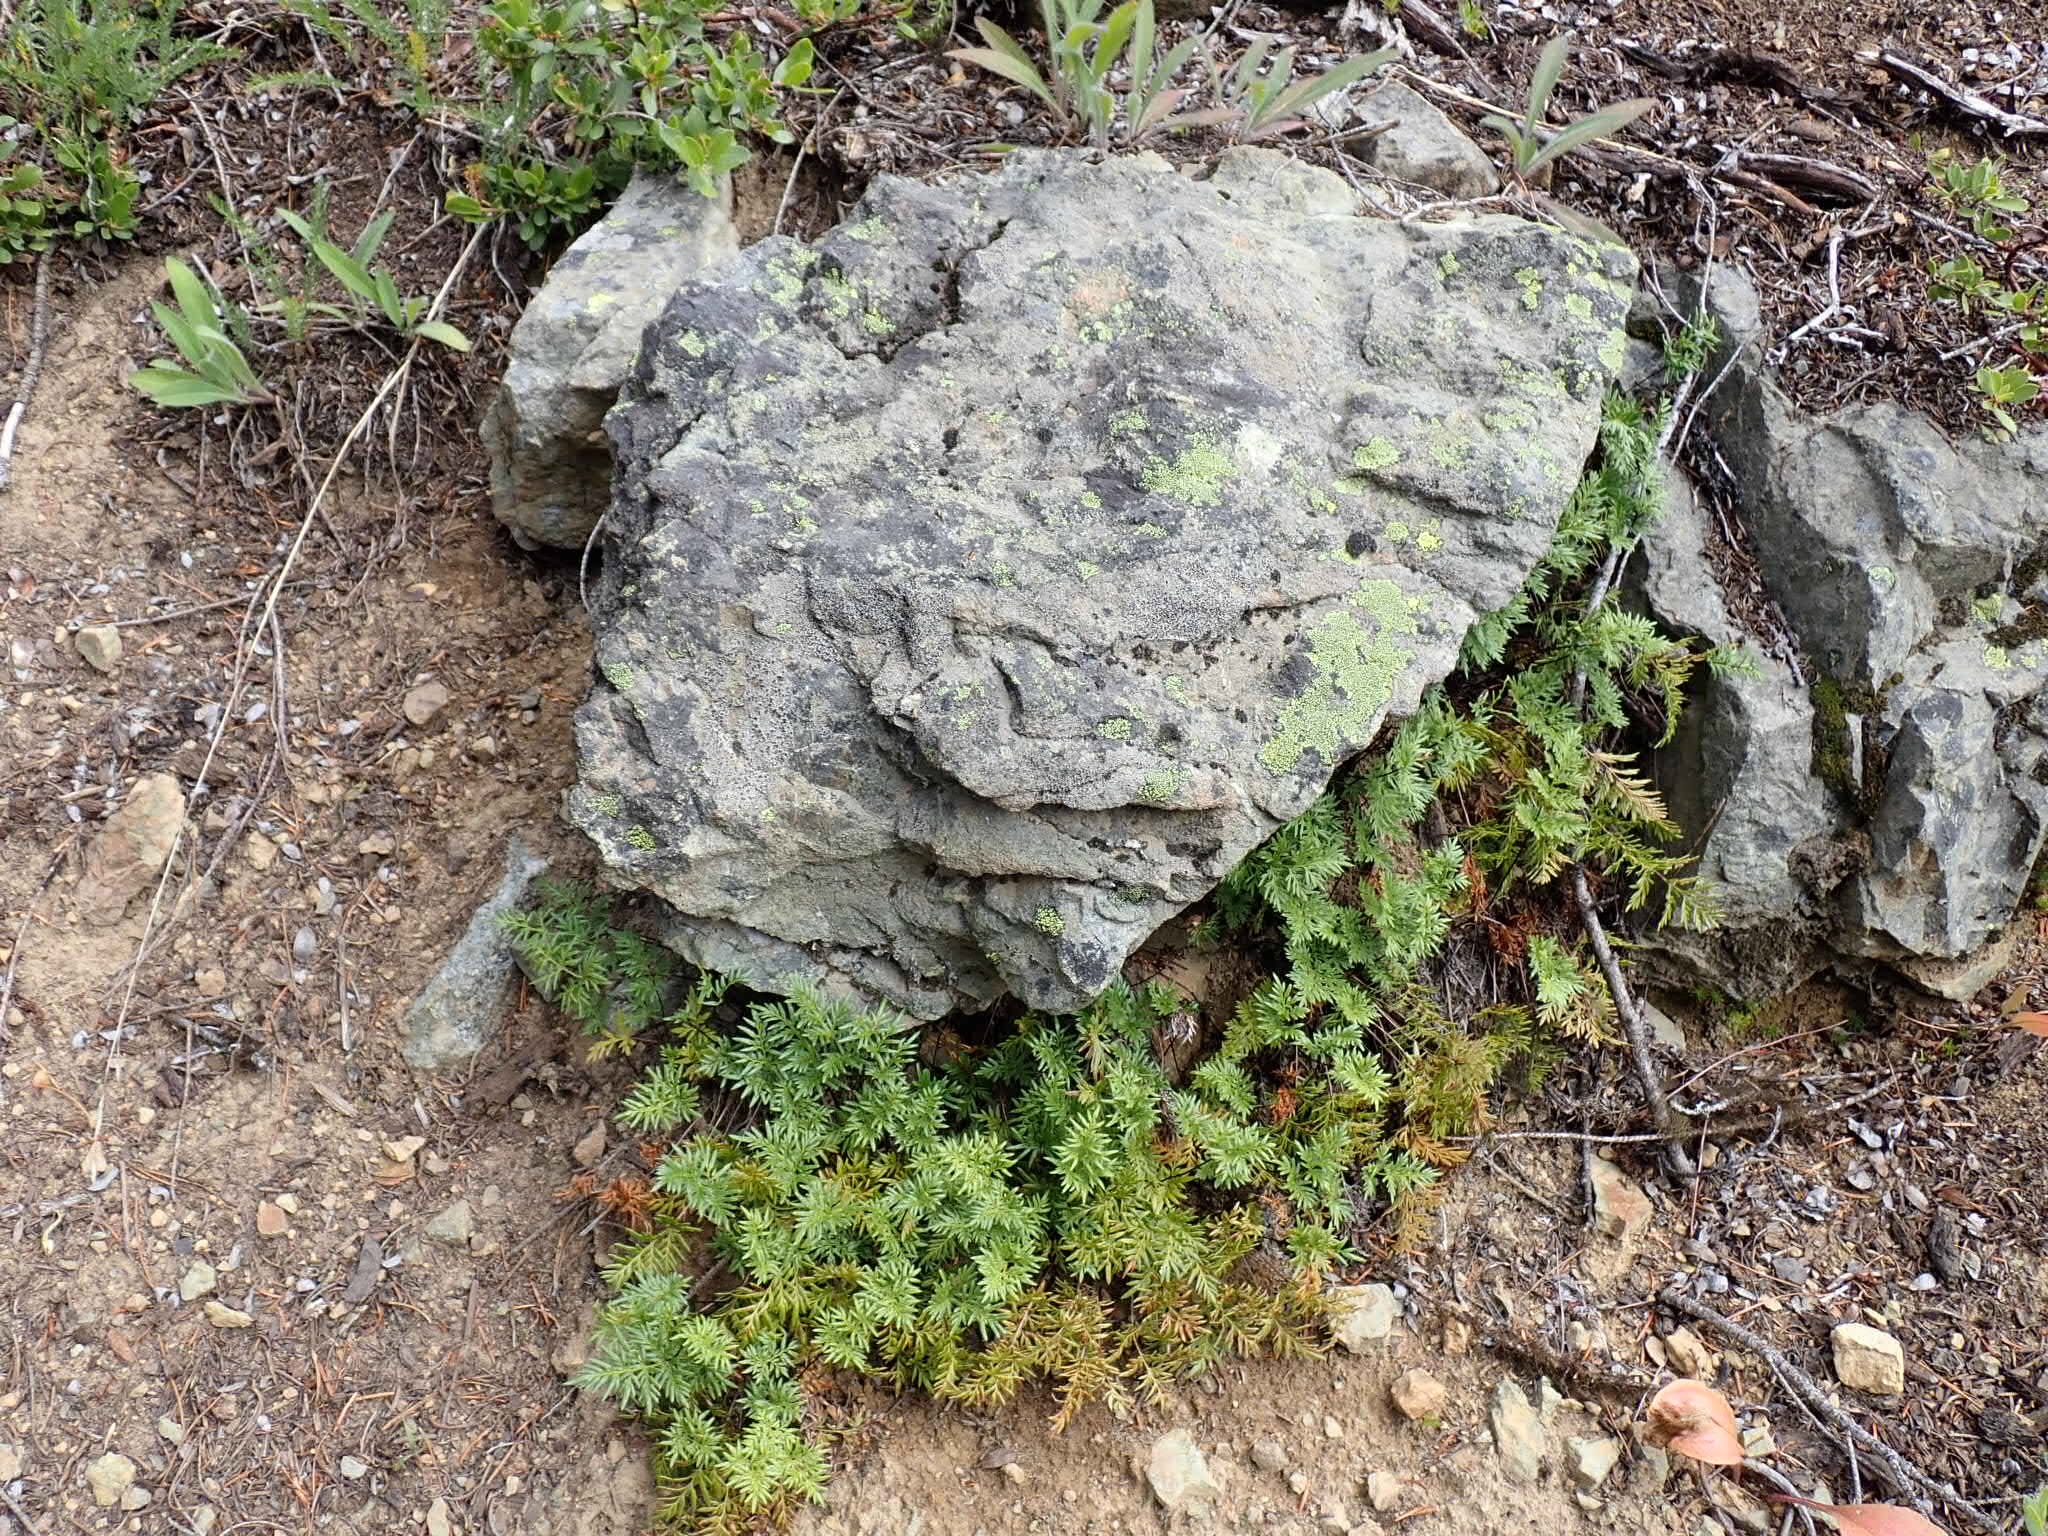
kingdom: Plantae
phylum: Tracheophyta
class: Polypodiopsida
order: Polypodiales
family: Pteridaceae
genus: Aspidotis
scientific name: Aspidotis densa
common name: Indian's dream
